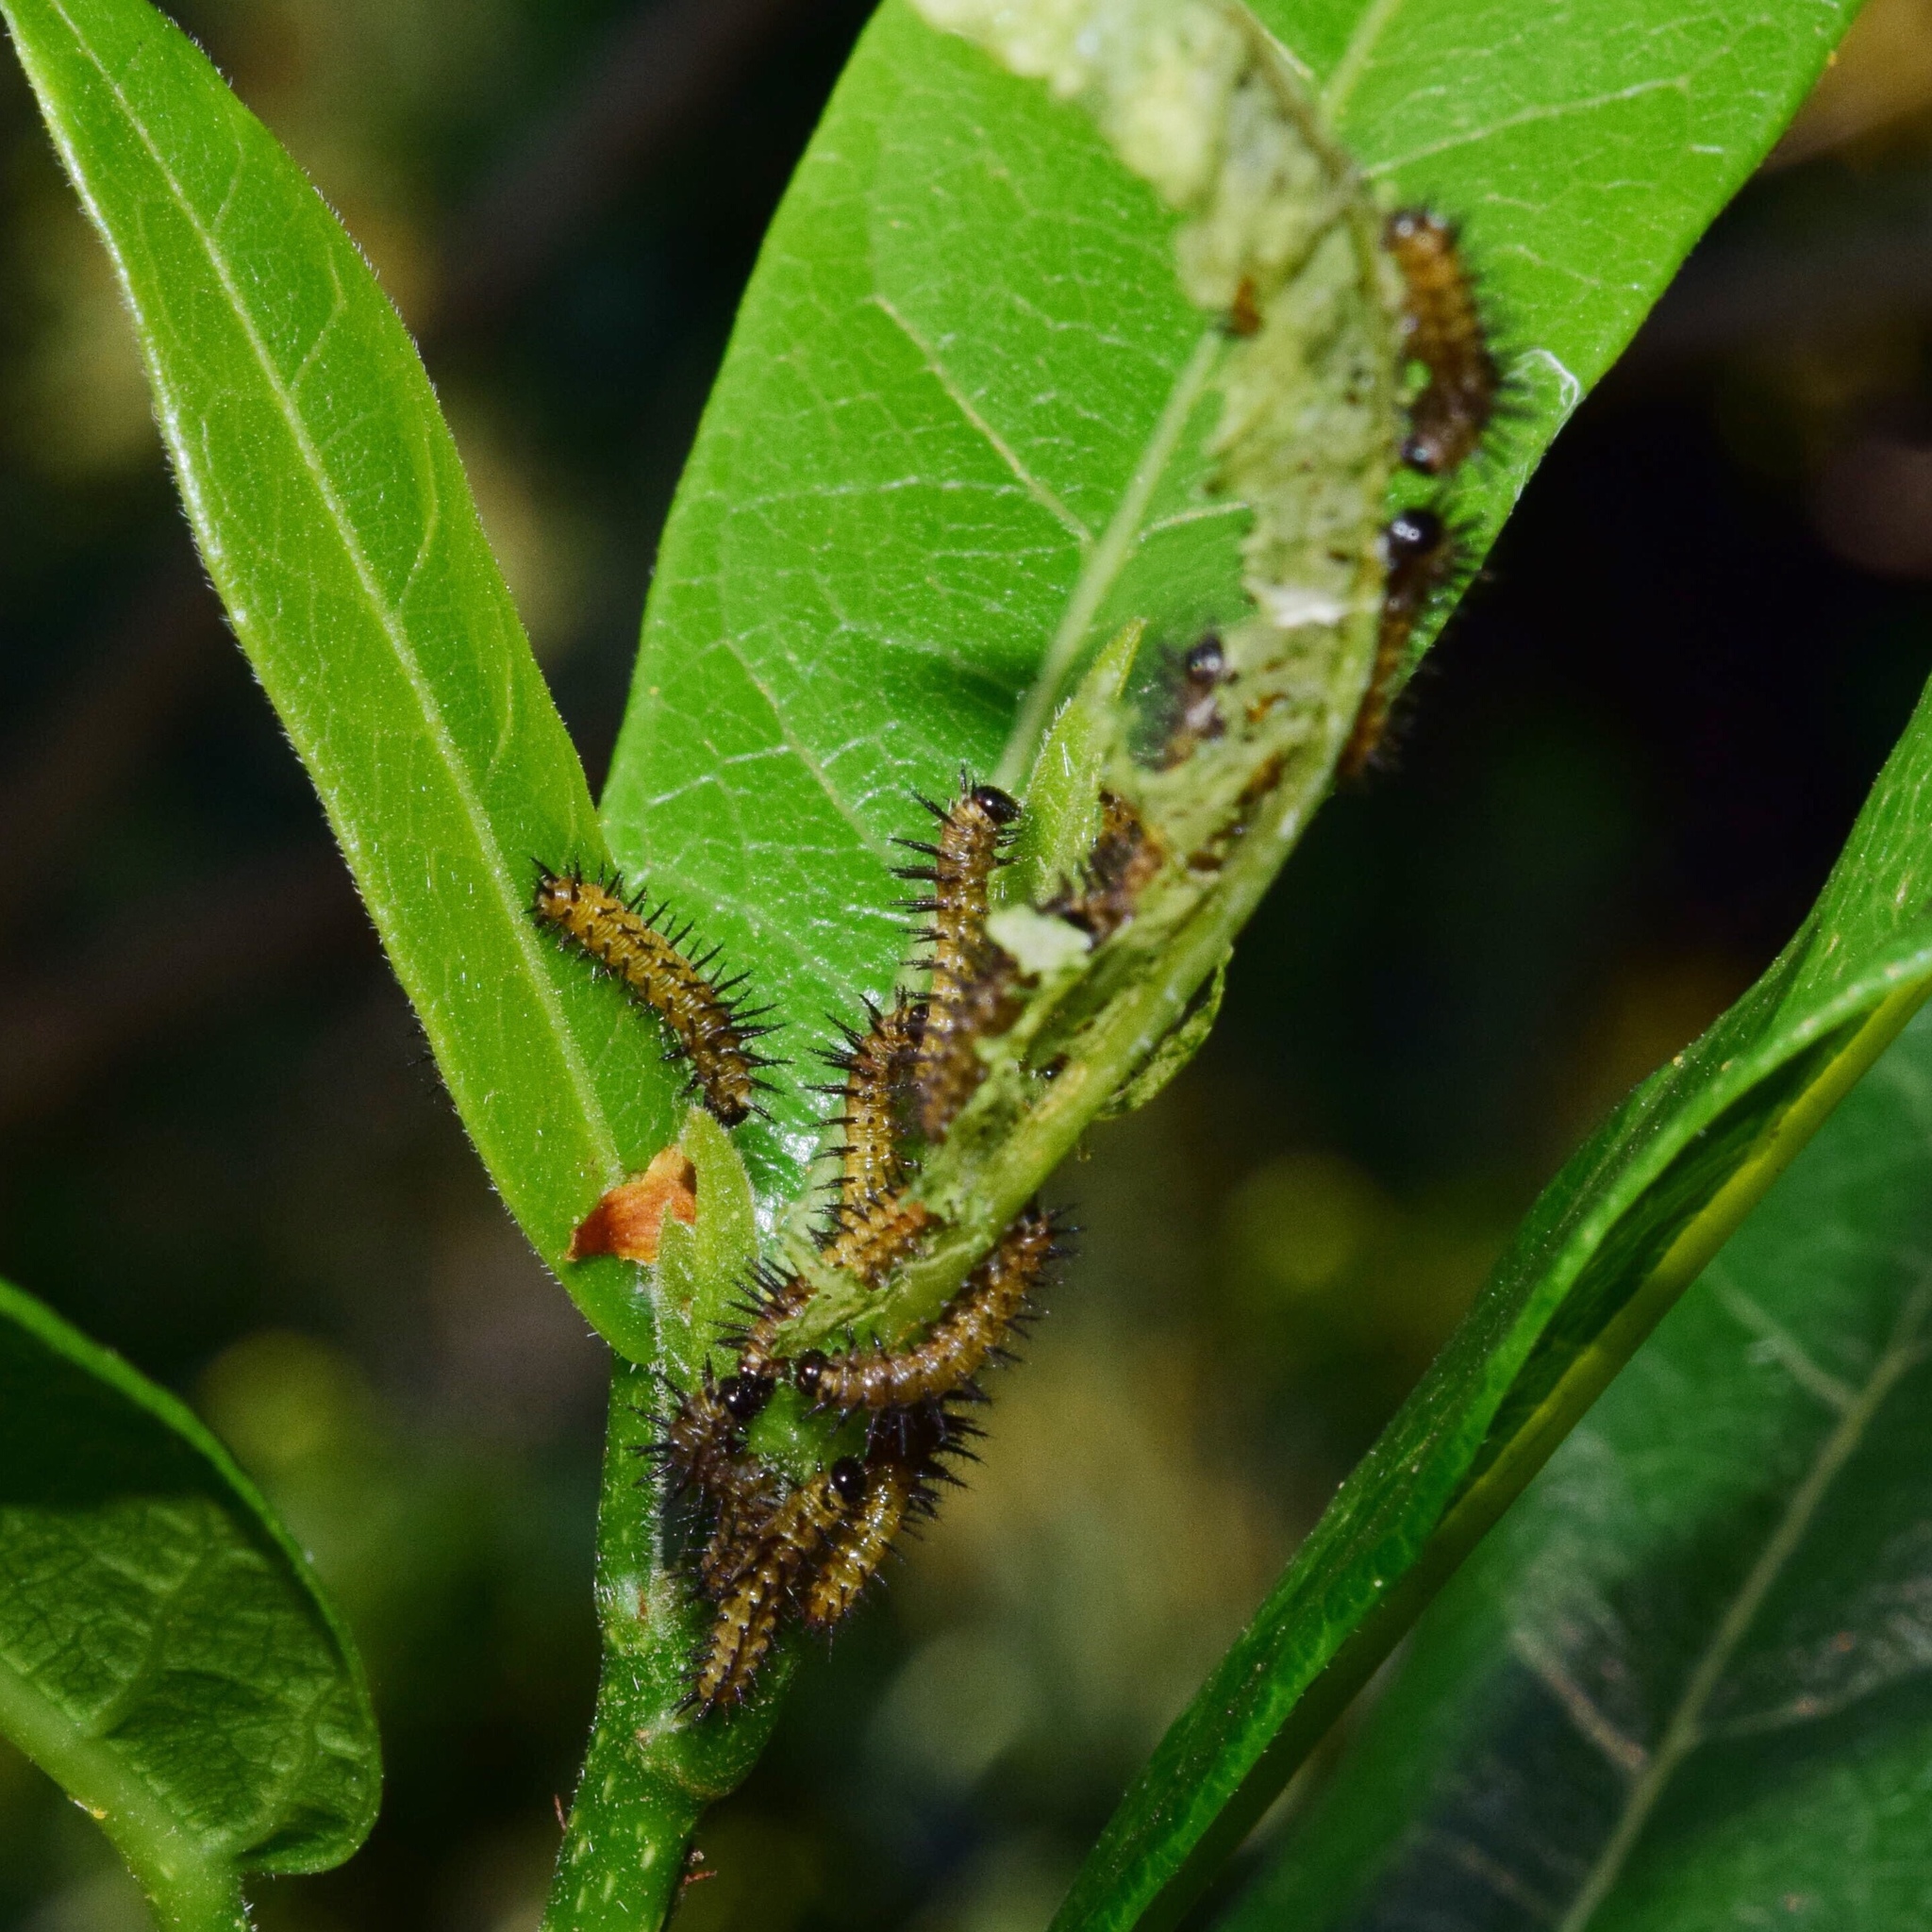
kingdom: Animalia
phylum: Arthropoda
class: Insecta
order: Lepidoptera
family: Nymphalidae
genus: Rubraea
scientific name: Rubraea
